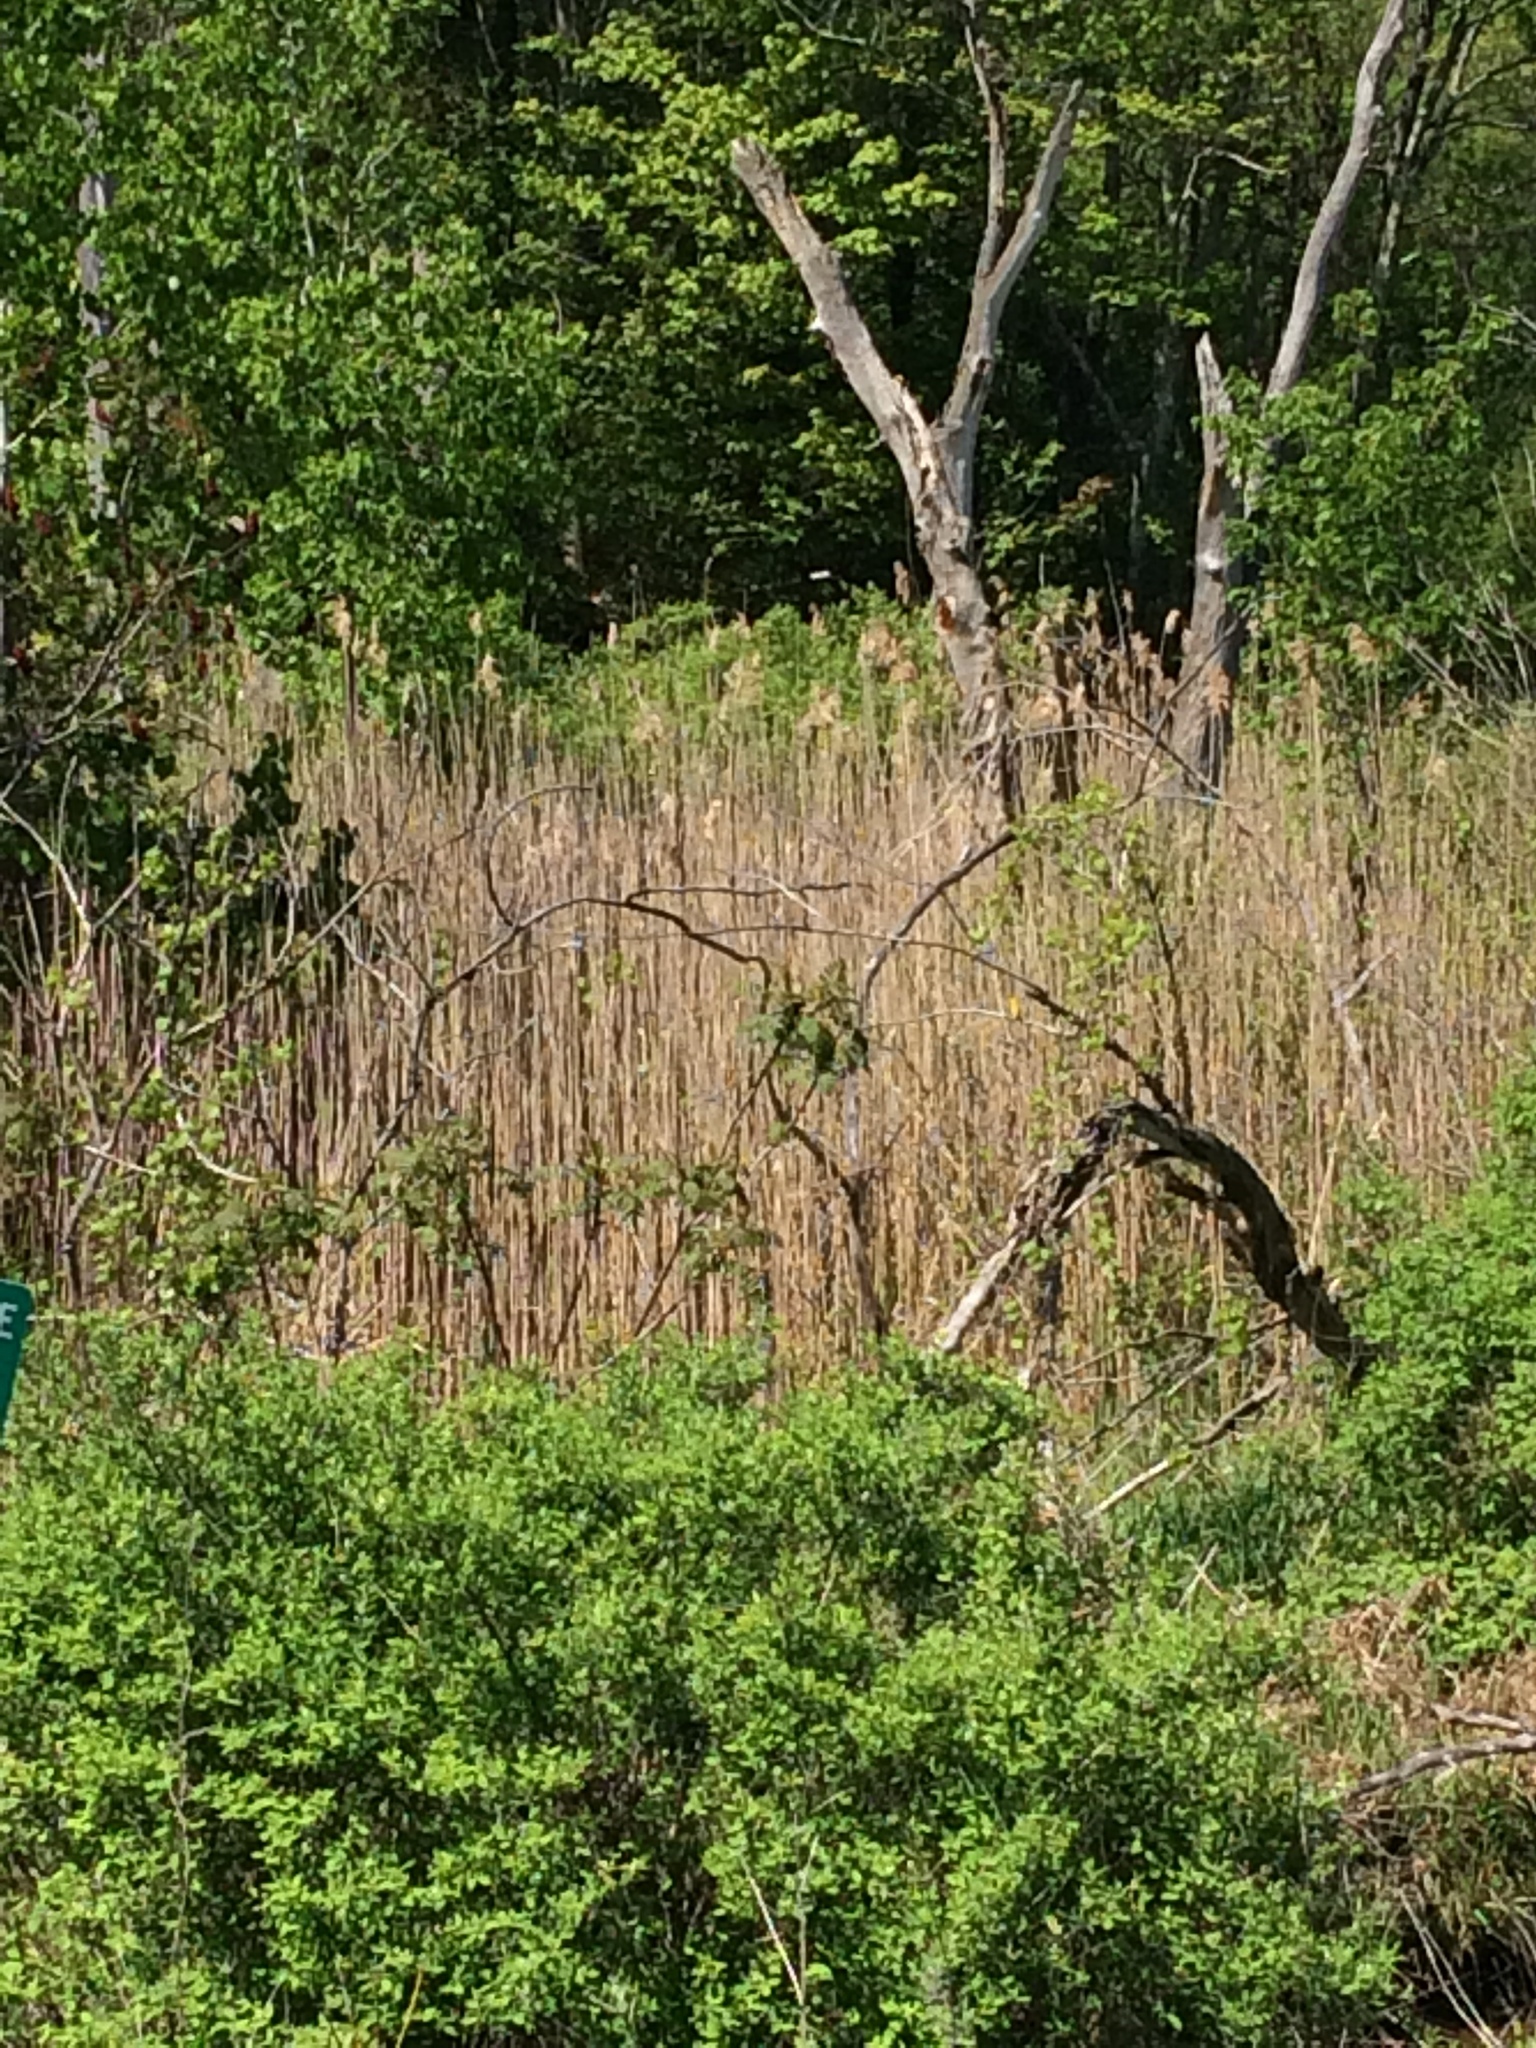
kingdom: Plantae
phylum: Tracheophyta
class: Liliopsida
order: Poales
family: Poaceae
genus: Phragmites
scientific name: Phragmites australis
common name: Common reed
